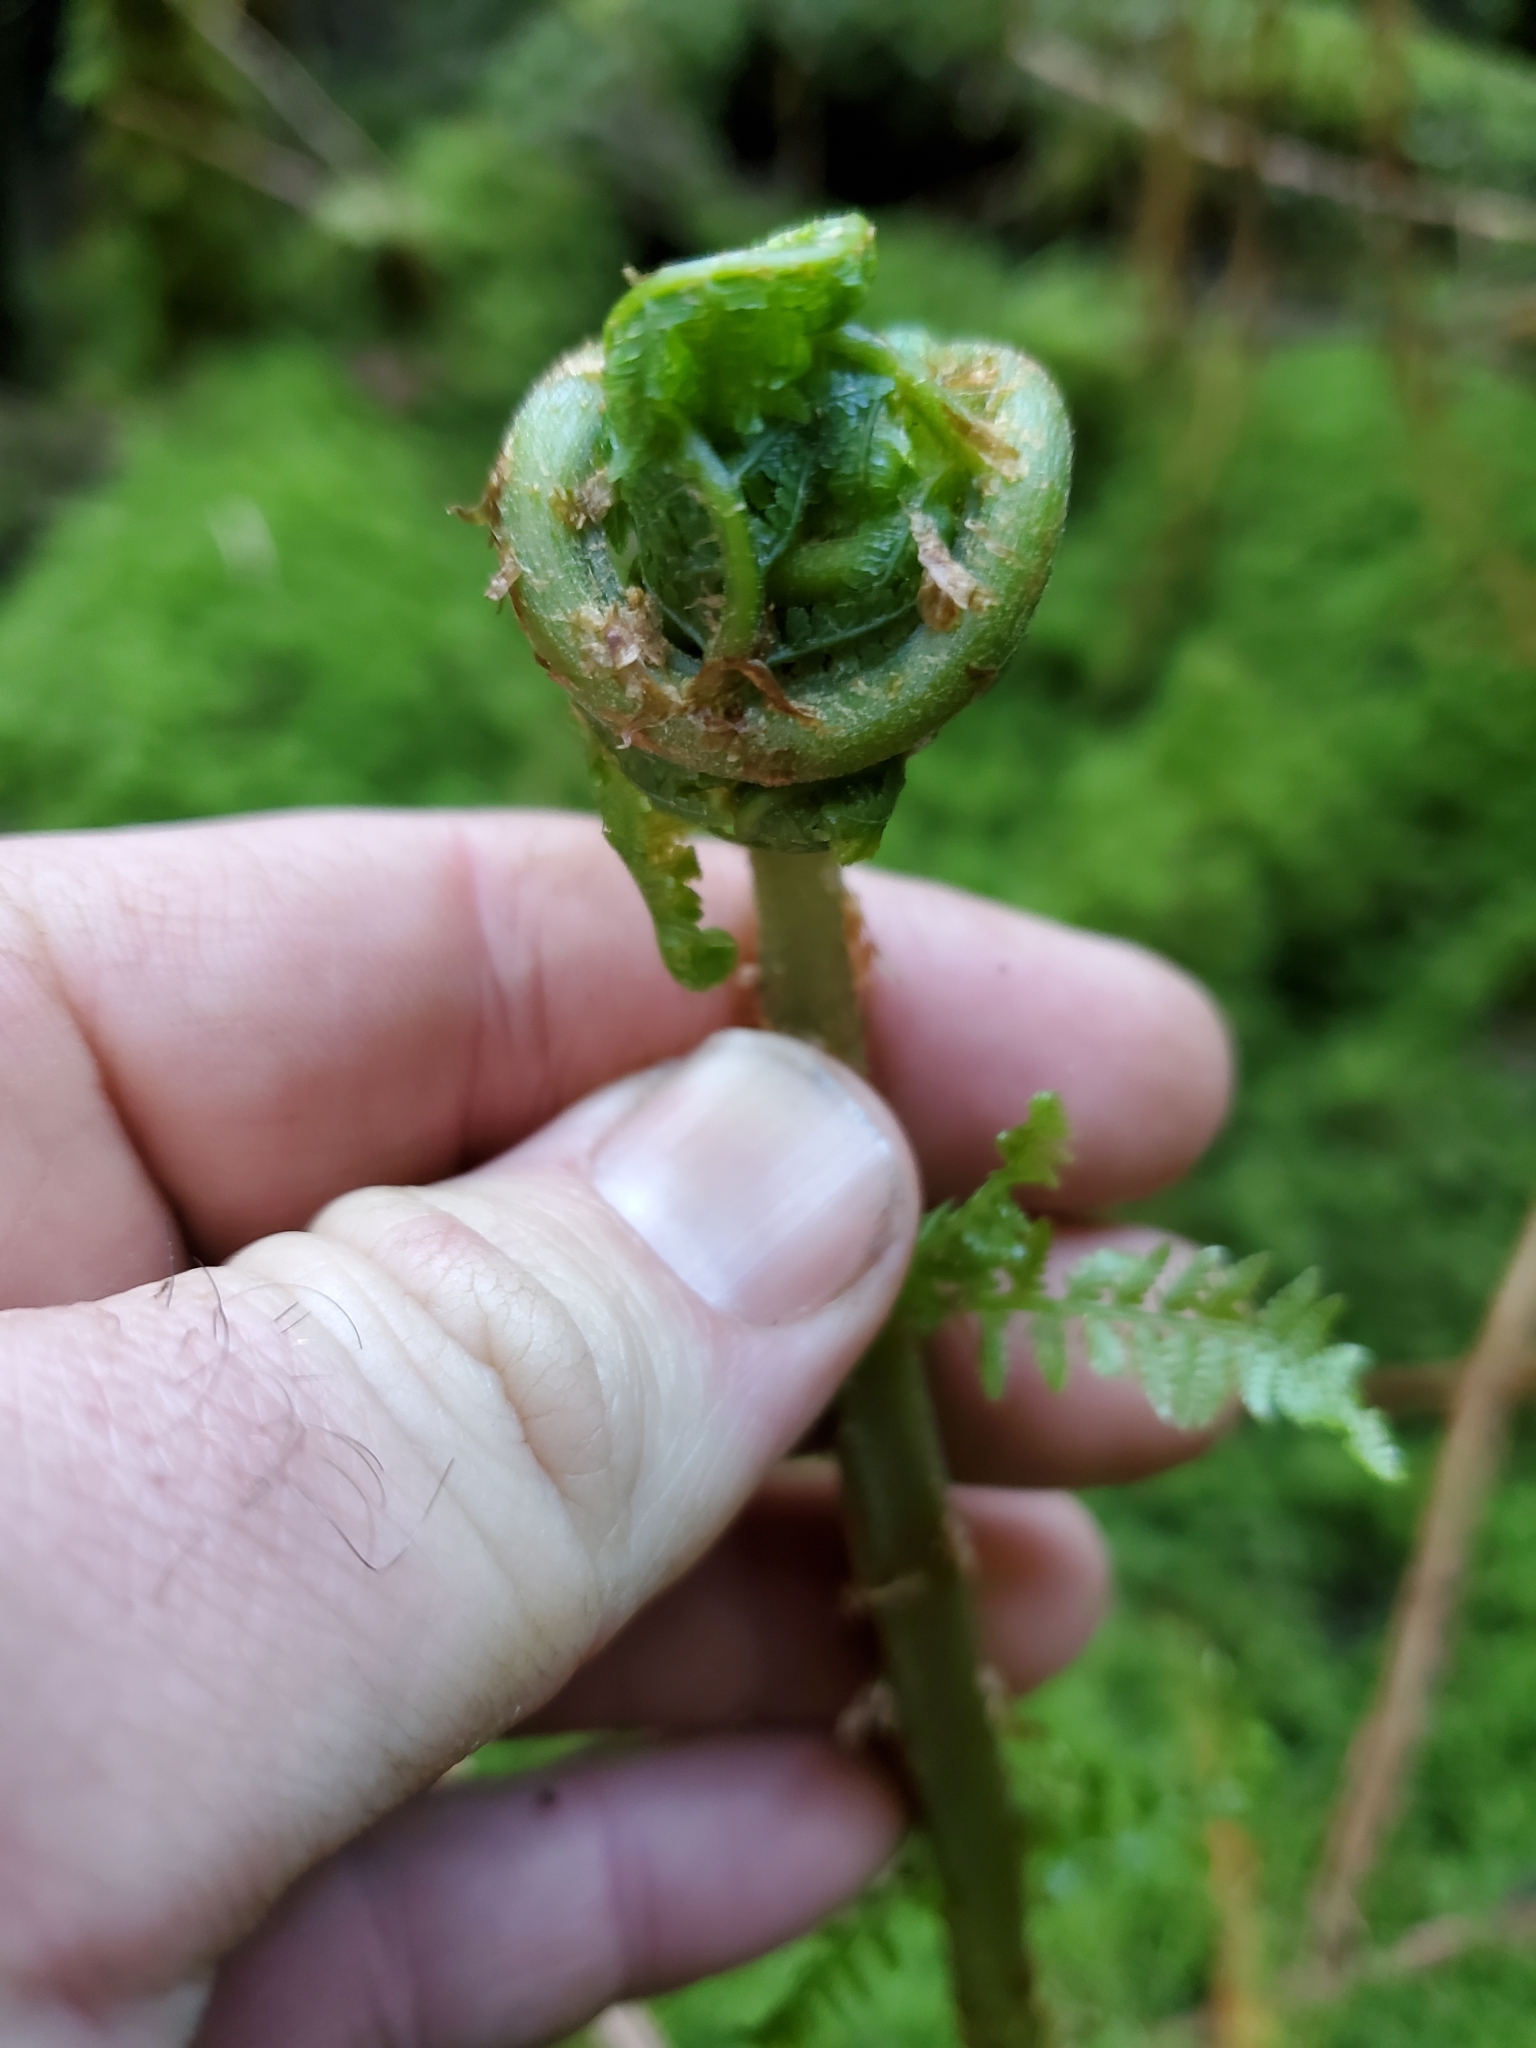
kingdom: Plantae
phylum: Tracheophyta
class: Polypodiopsida
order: Polypodiales
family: Athyriaceae
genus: Athyrium
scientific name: Athyrium filix-femina
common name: Lady fern
